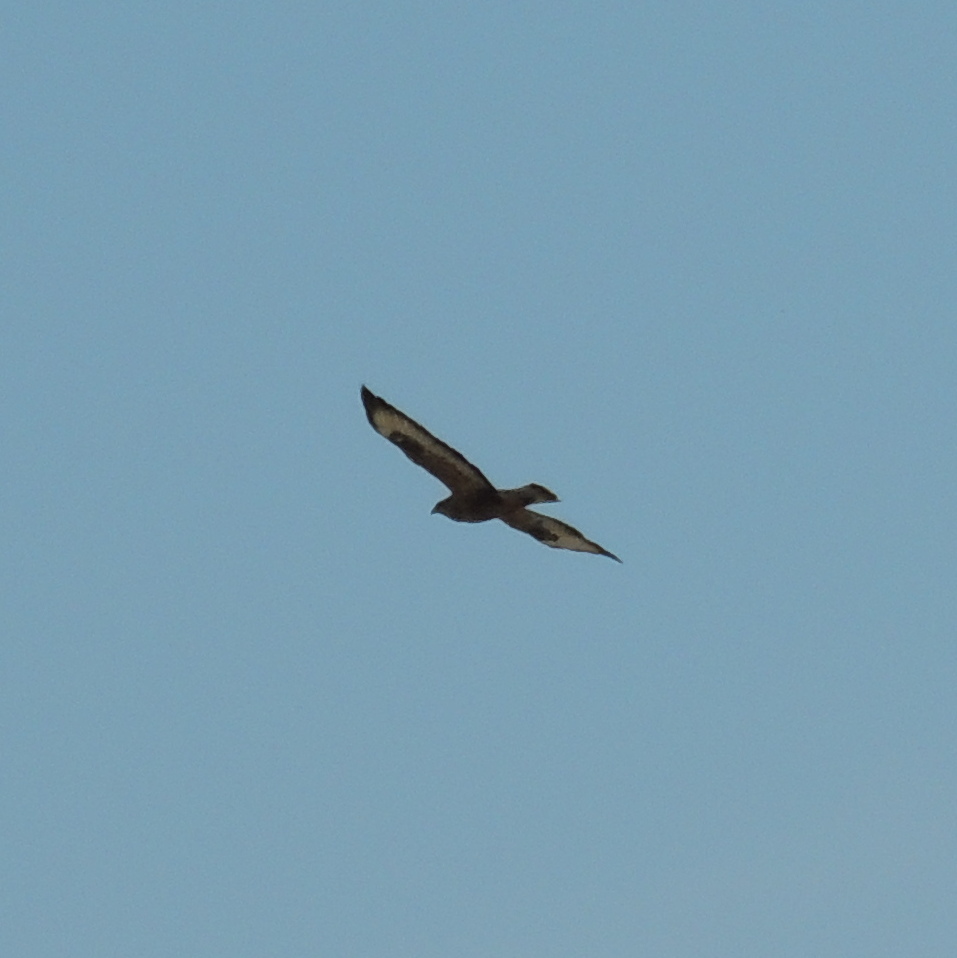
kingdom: Animalia
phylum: Chordata
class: Aves
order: Accipitriformes
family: Accipitridae
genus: Buteo
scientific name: Buteo buteo
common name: Common buzzard
